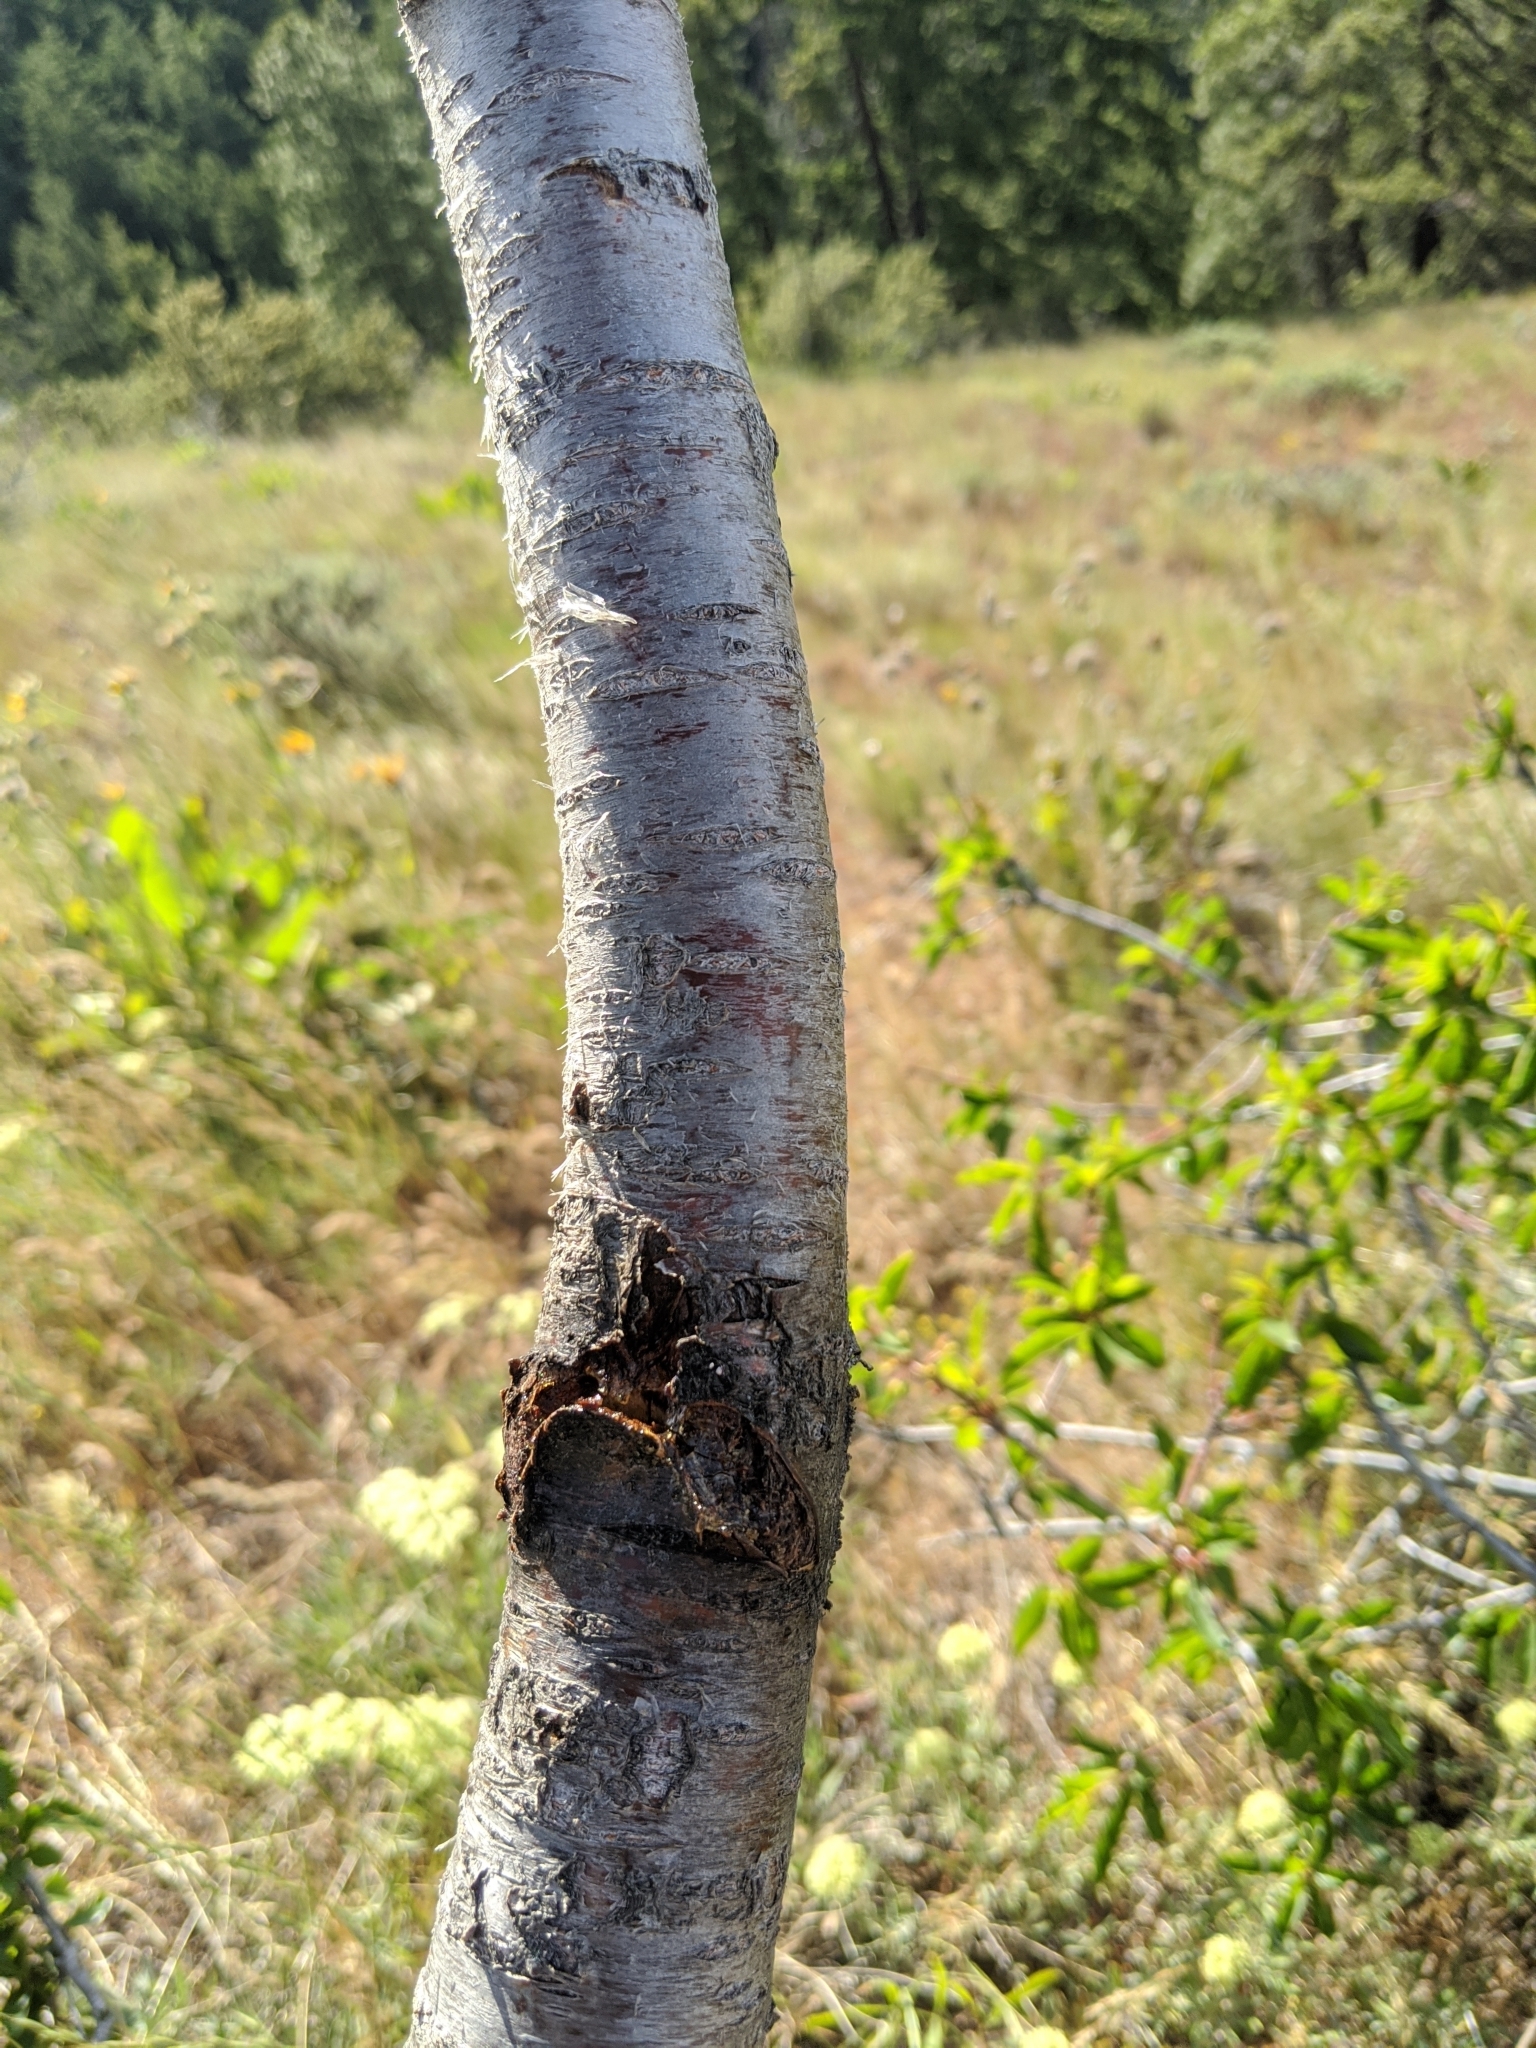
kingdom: Plantae
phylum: Tracheophyta
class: Magnoliopsida
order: Rosales
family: Rosaceae
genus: Prunus
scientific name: Prunus emarginata
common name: Bitter cherry
